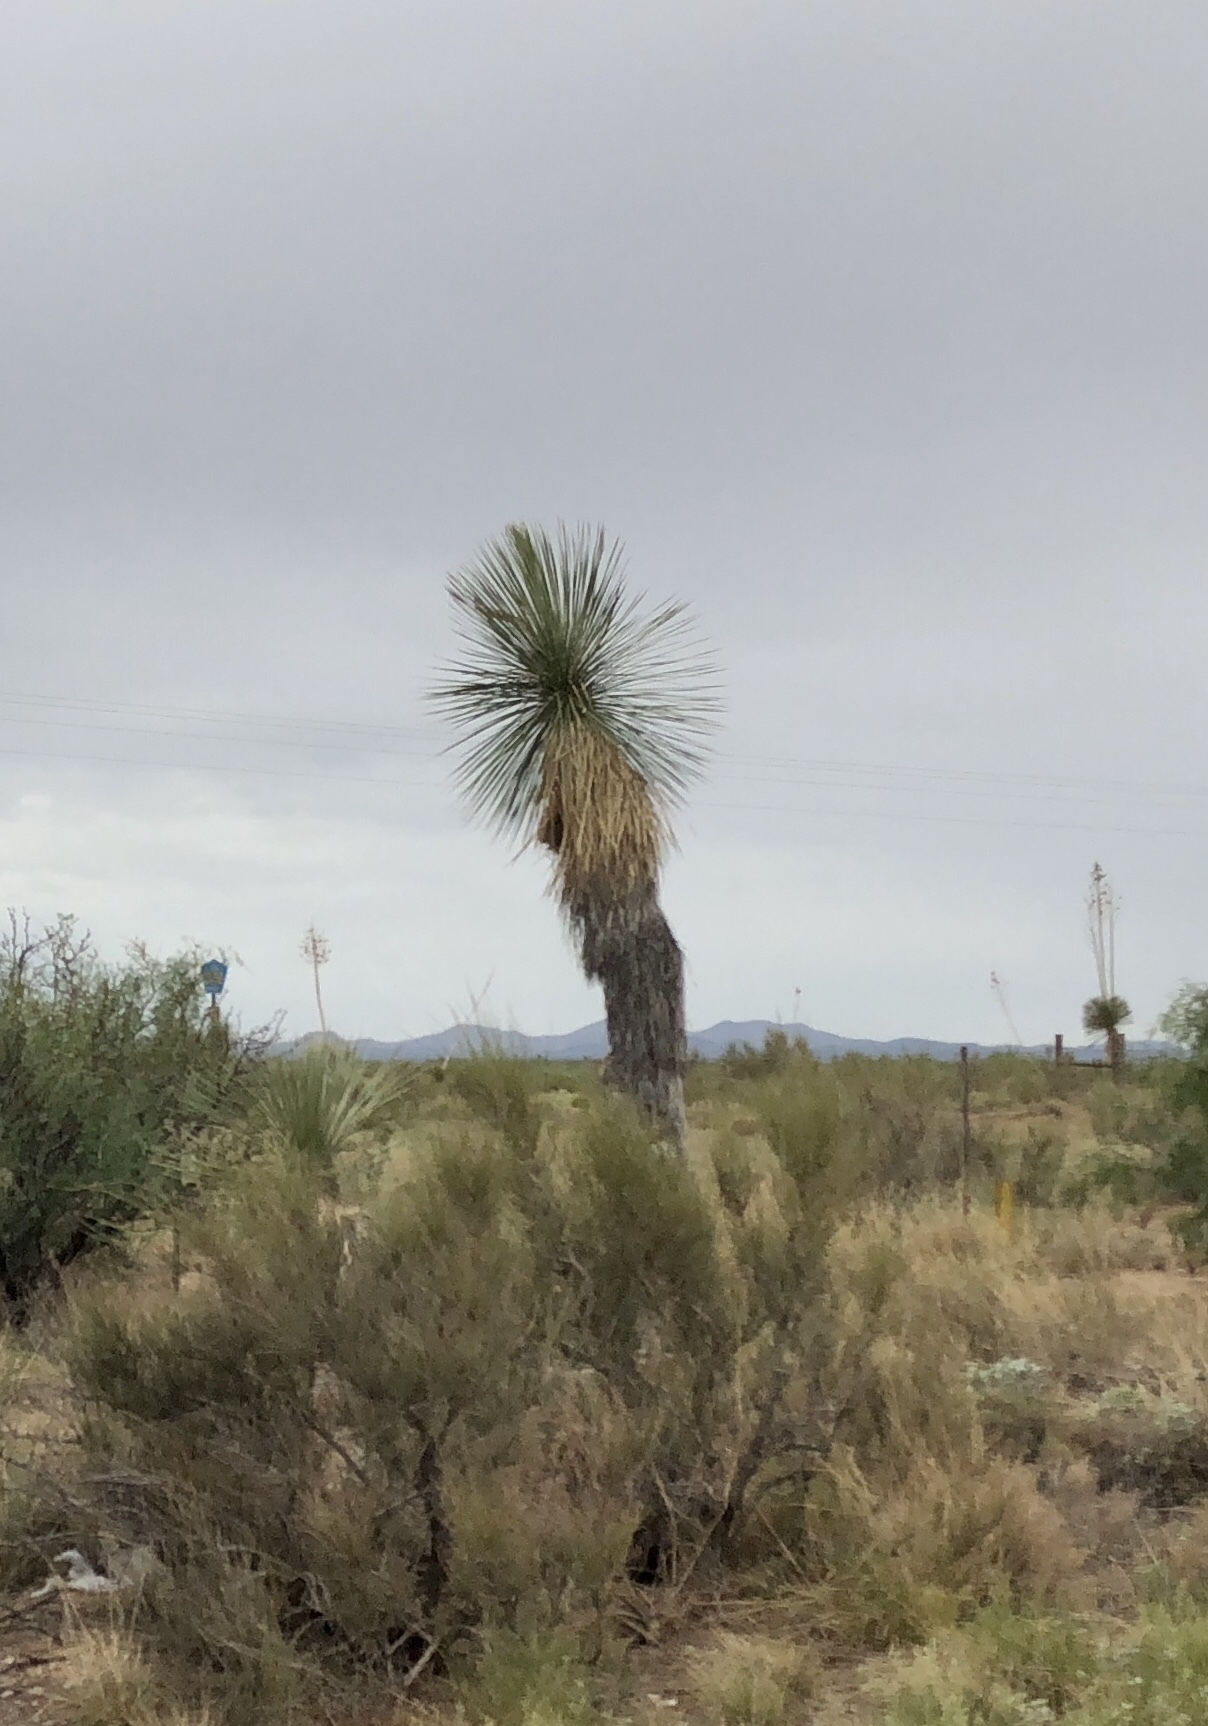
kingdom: Plantae
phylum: Tracheophyta
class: Liliopsida
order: Asparagales
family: Asparagaceae
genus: Yucca
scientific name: Yucca elata
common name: Palmella
